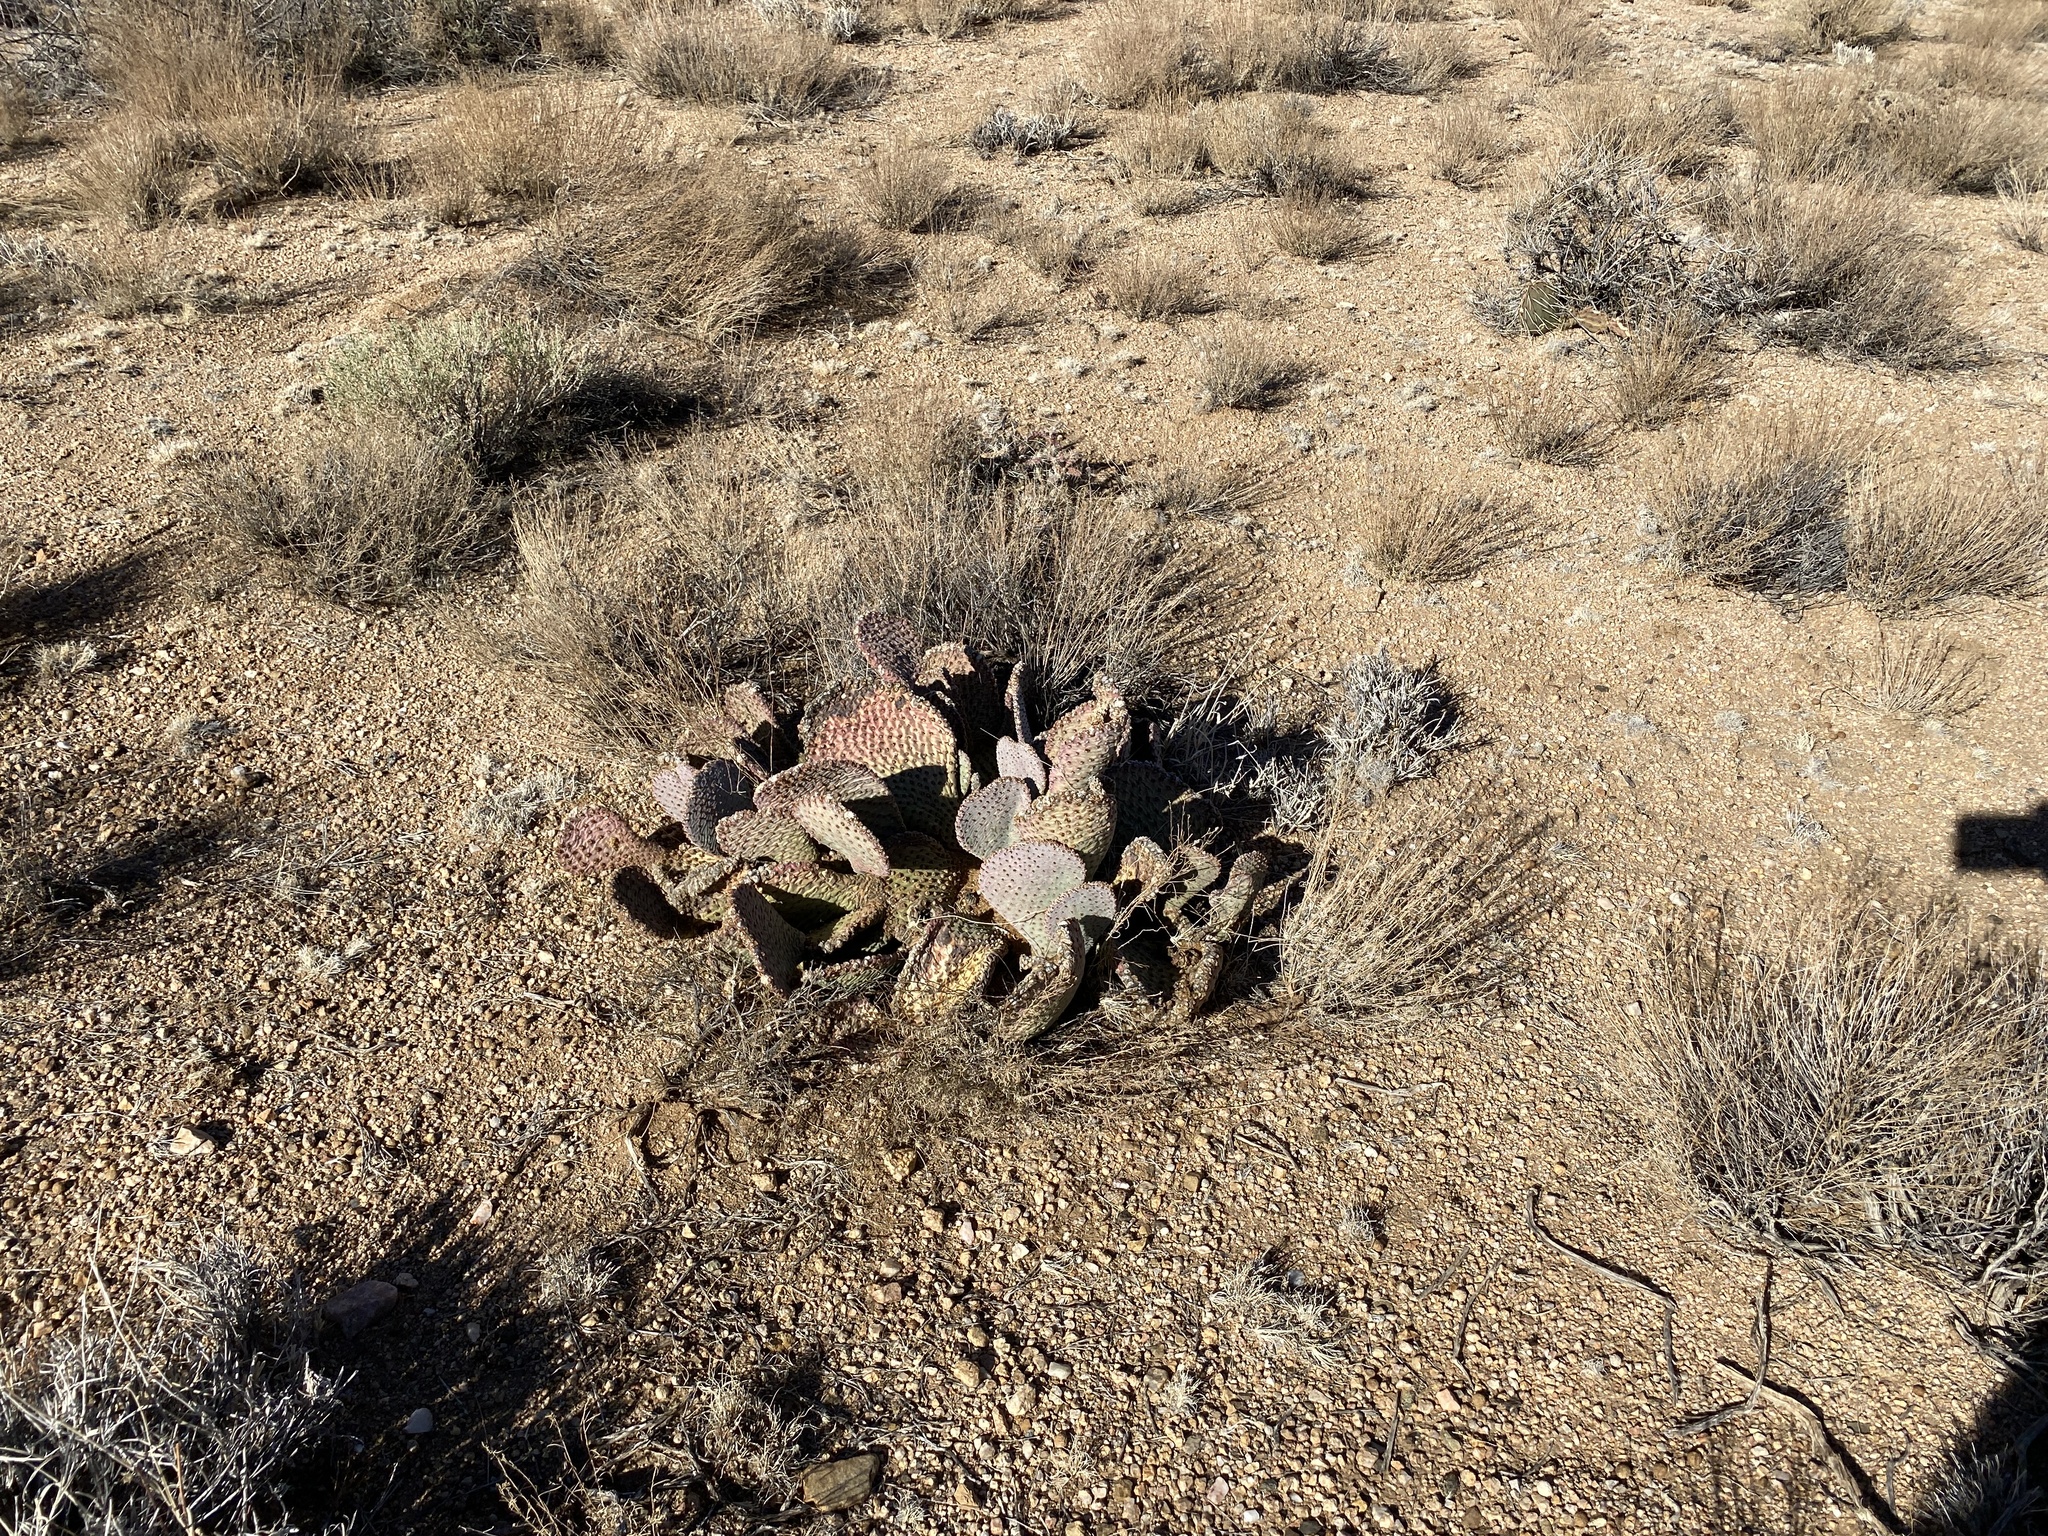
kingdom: Plantae
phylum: Tracheophyta
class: Magnoliopsida
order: Caryophyllales
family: Cactaceae
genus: Opuntia
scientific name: Opuntia basilaris
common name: Beavertail prickly-pear
